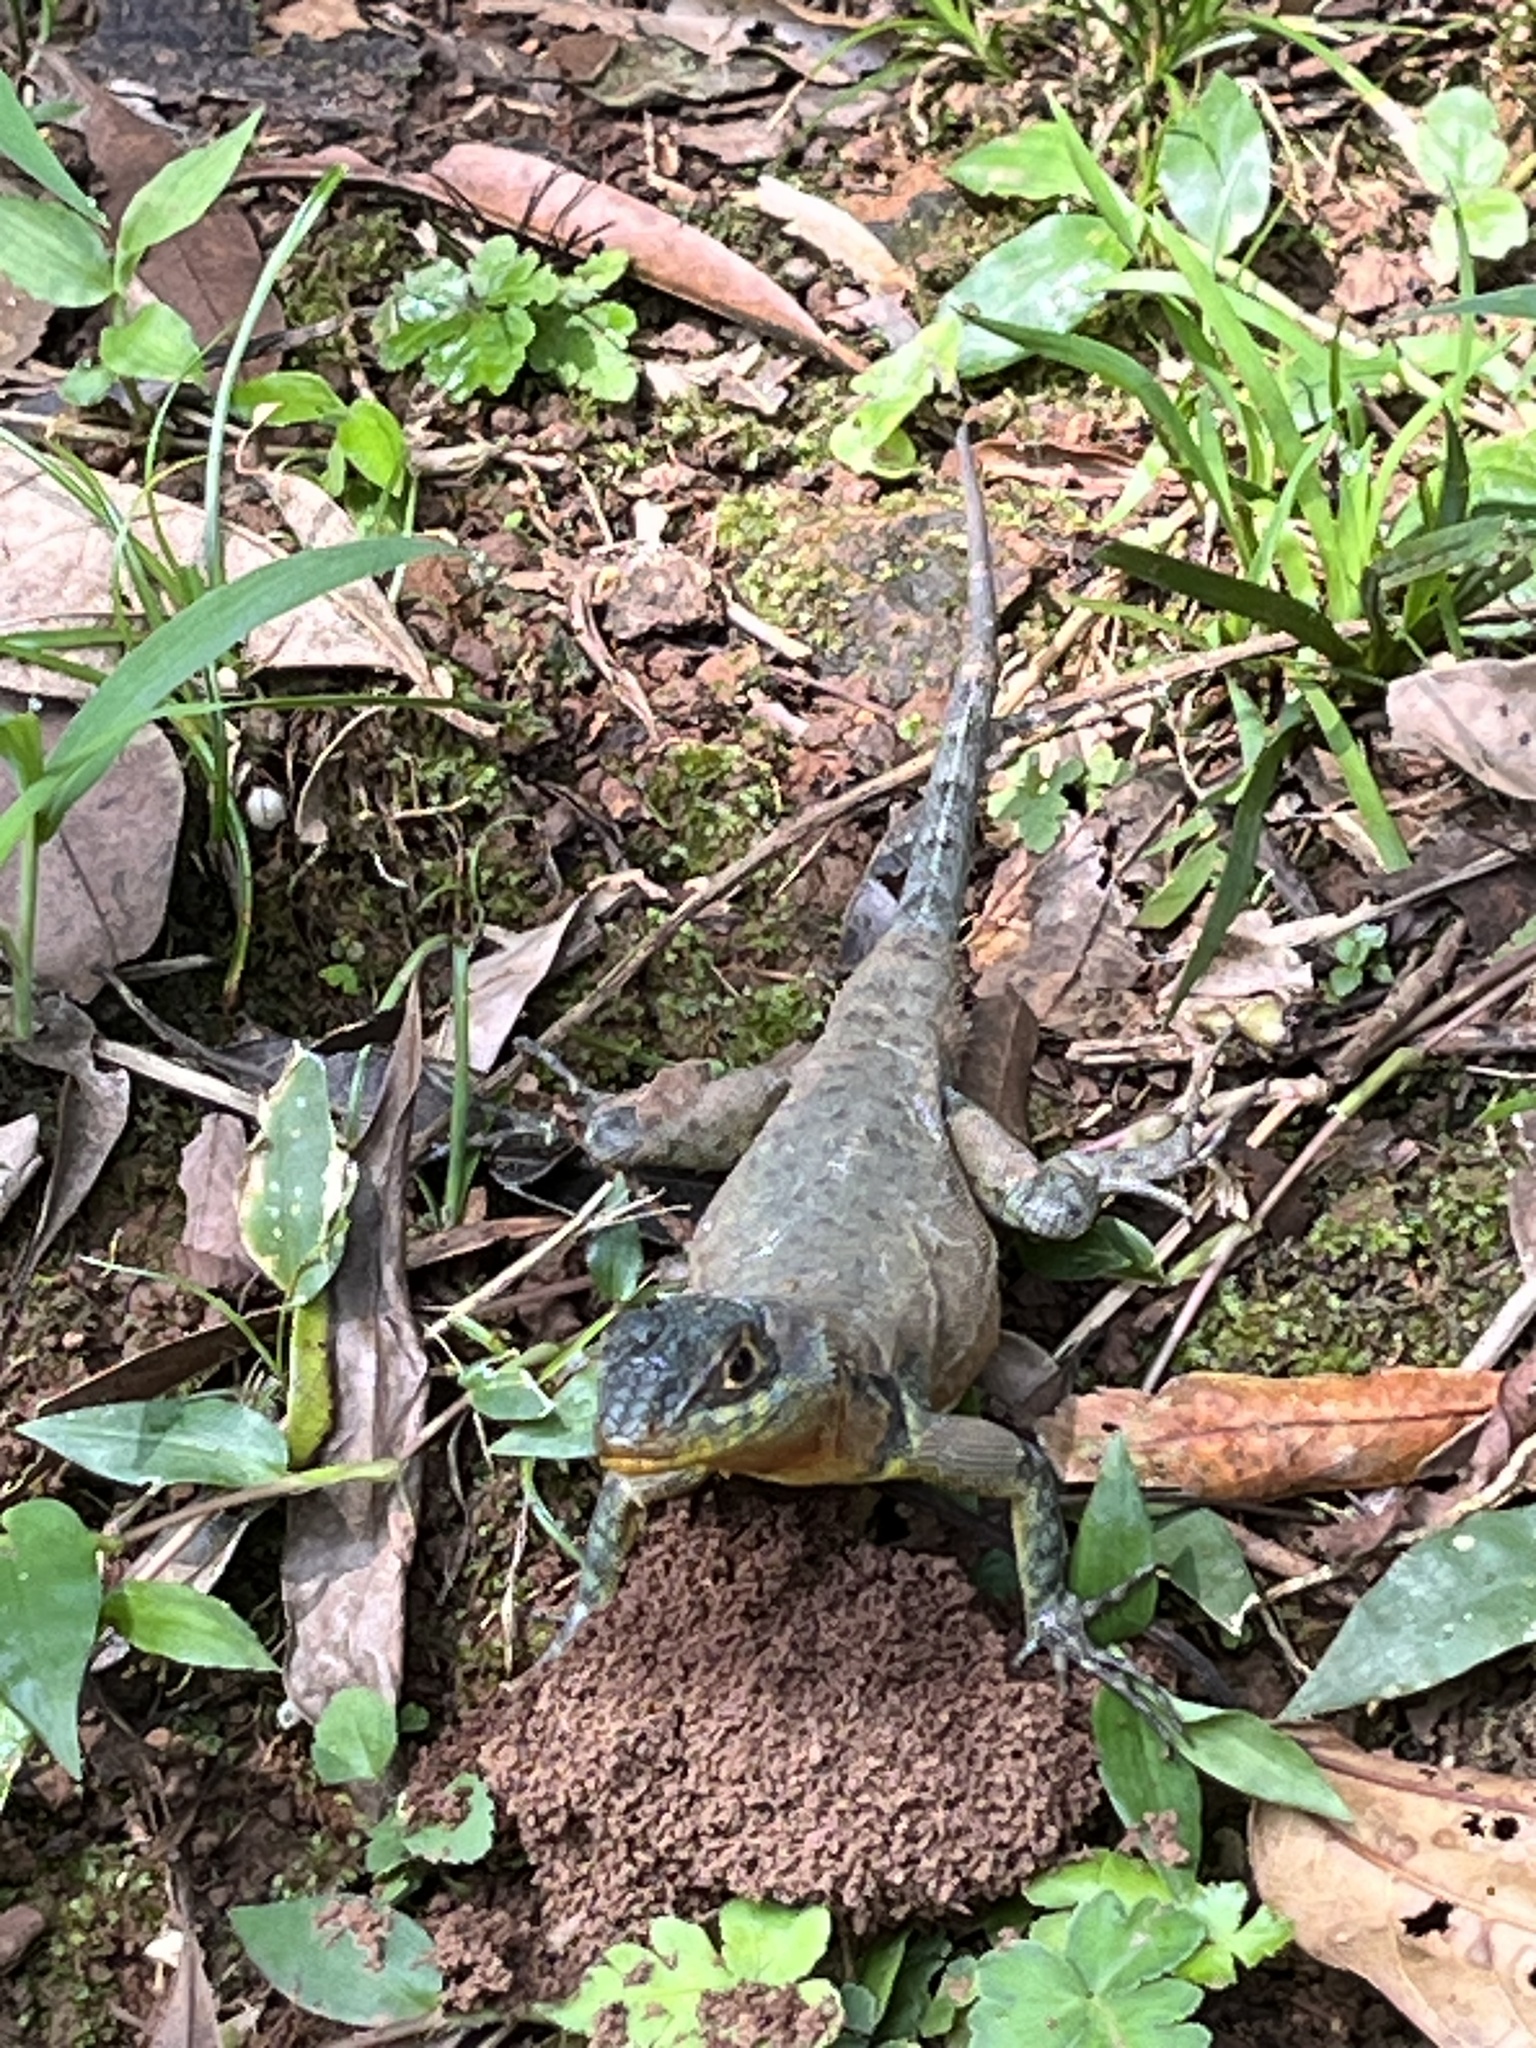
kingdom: Animalia
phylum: Chordata
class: Squamata
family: Tropiduridae
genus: Tropidurus
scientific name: Tropidurus catalanensis
